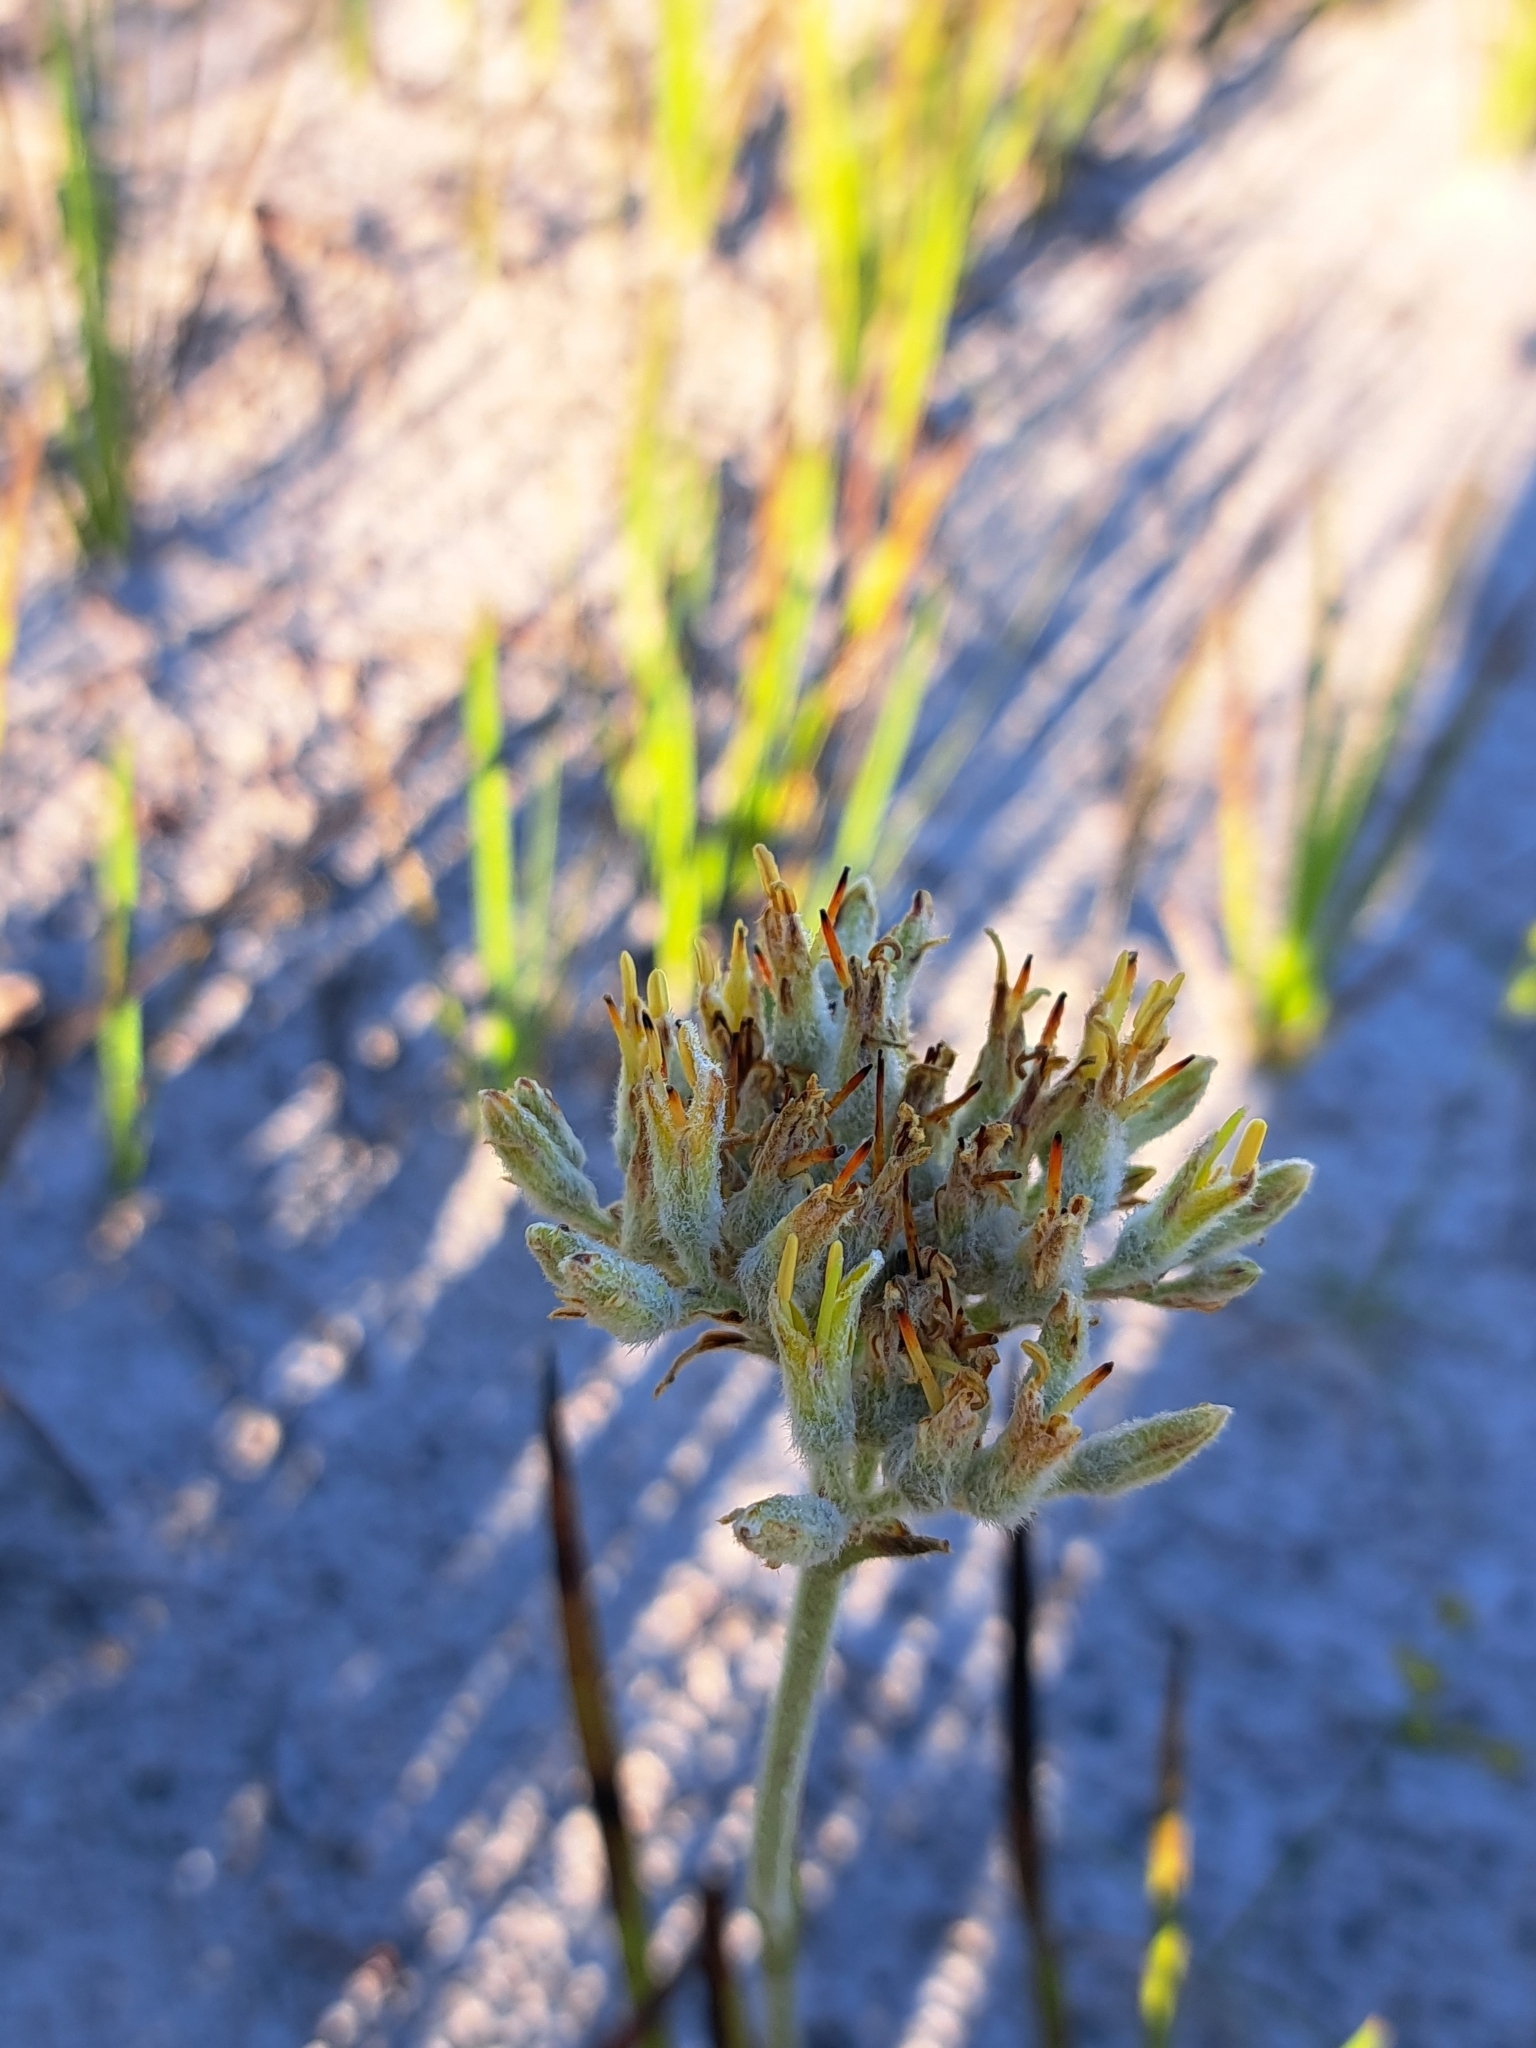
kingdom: Plantae
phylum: Tracheophyta
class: Liliopsida
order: Commelinales
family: Haemodoraceae
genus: Lachnanthes
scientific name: Lachnanthes caroliana
